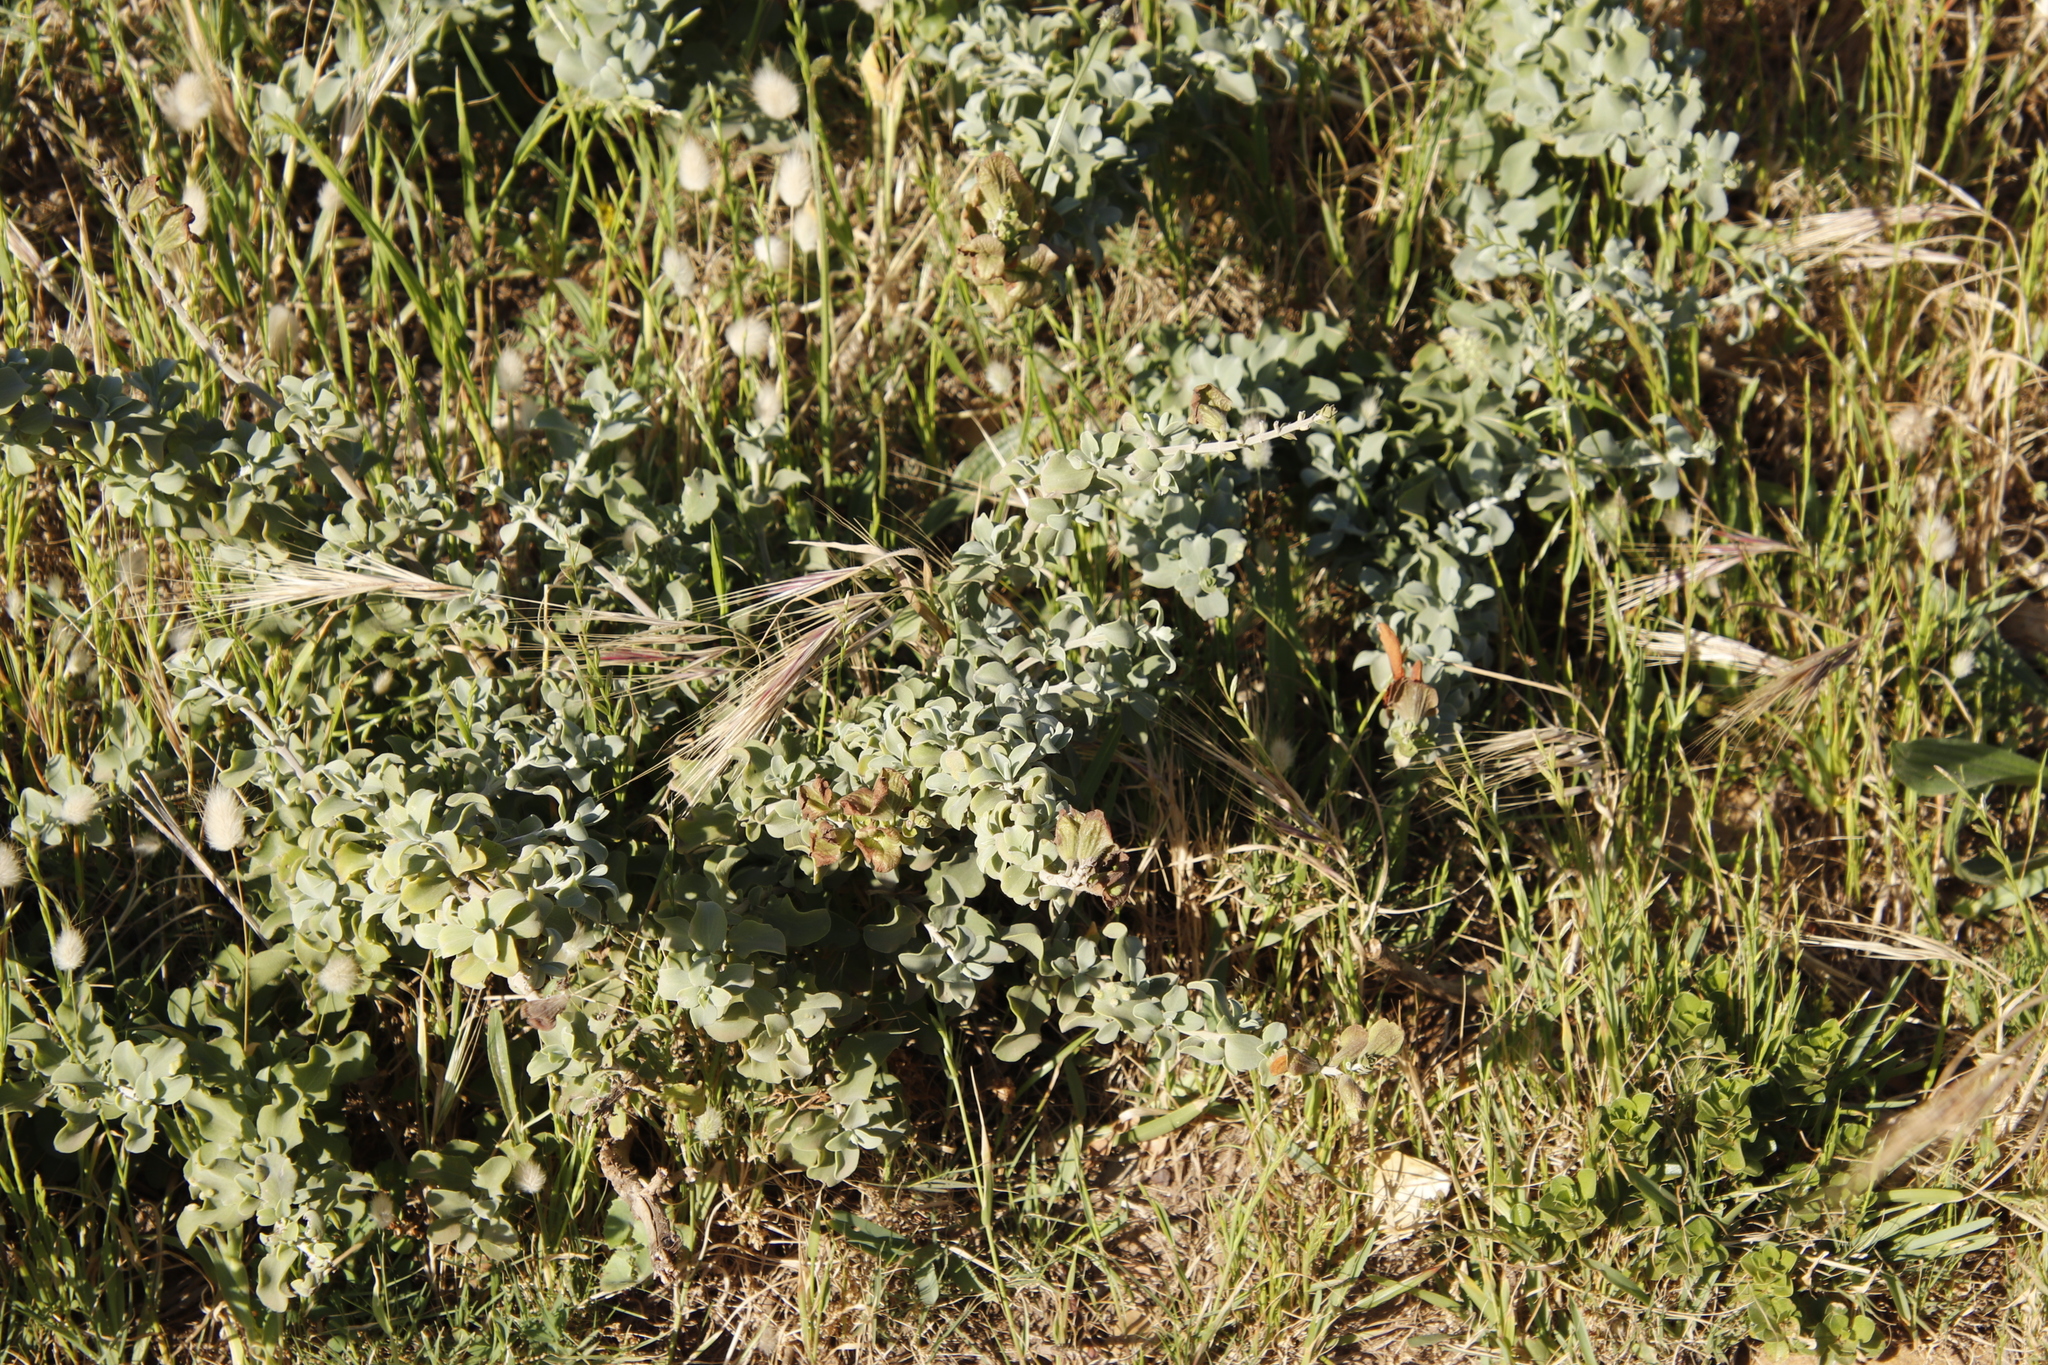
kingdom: Plantae
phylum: Tracheophyta
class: Magnoliopsida
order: Lamiales
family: Lamiaceae
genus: Salvia
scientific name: Salvia aurea
